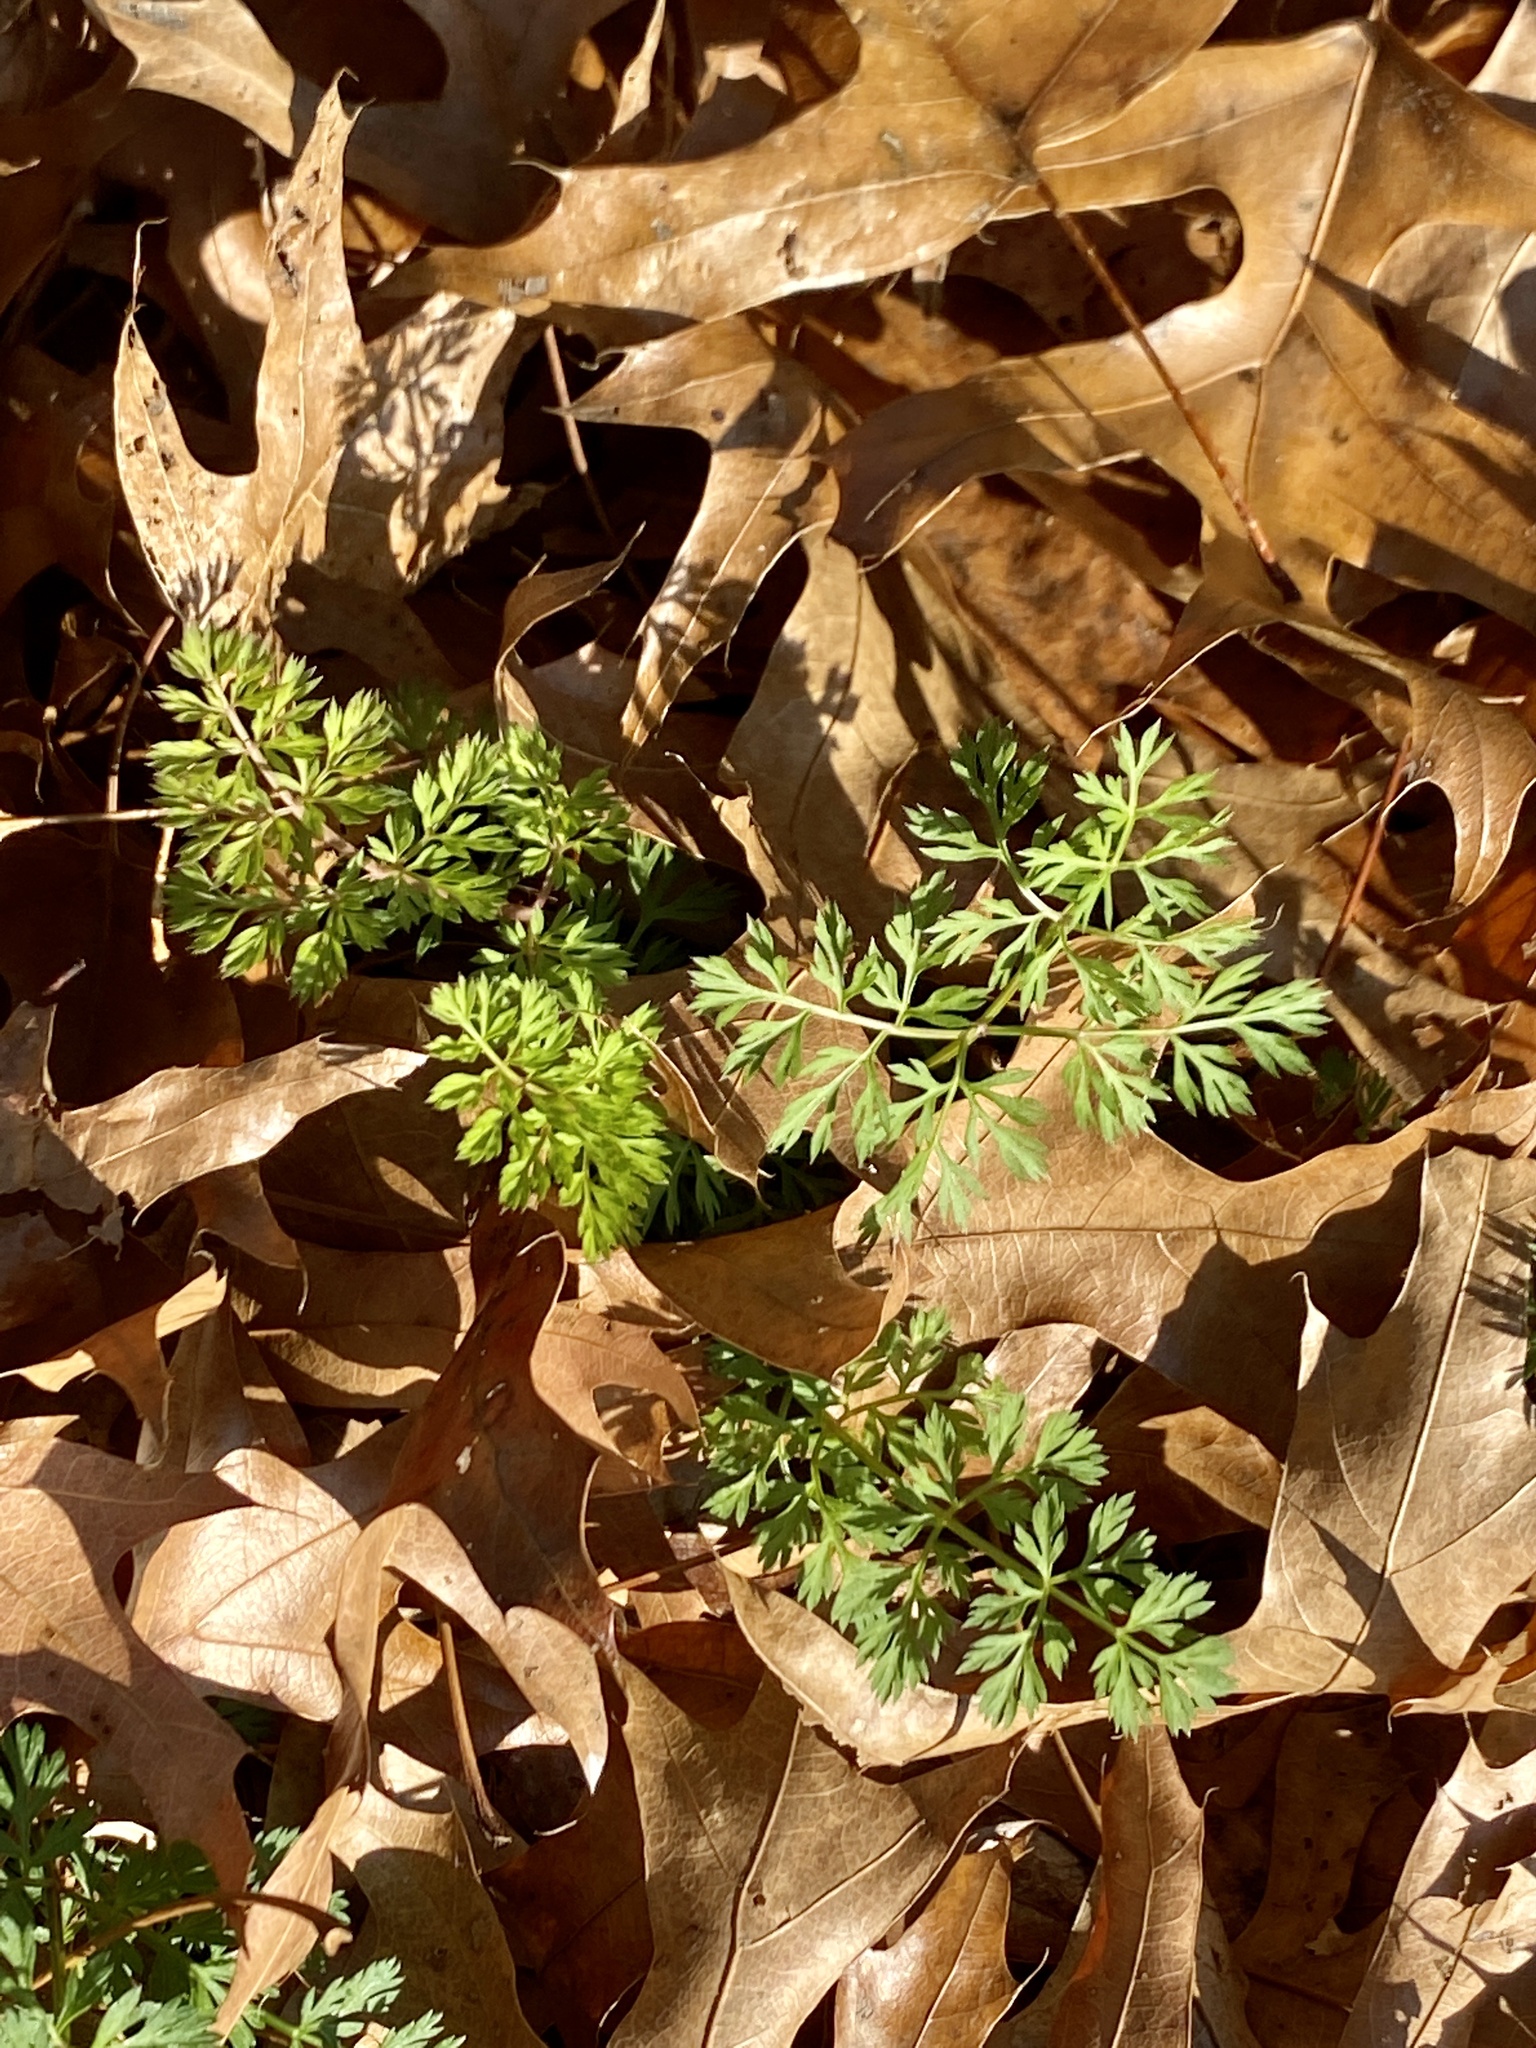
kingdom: Plantae
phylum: Tracheophyta
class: Magnoliopsida
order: Apiales
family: Apiaceae
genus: Daucus
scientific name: Daucus carota
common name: Wild carrot
